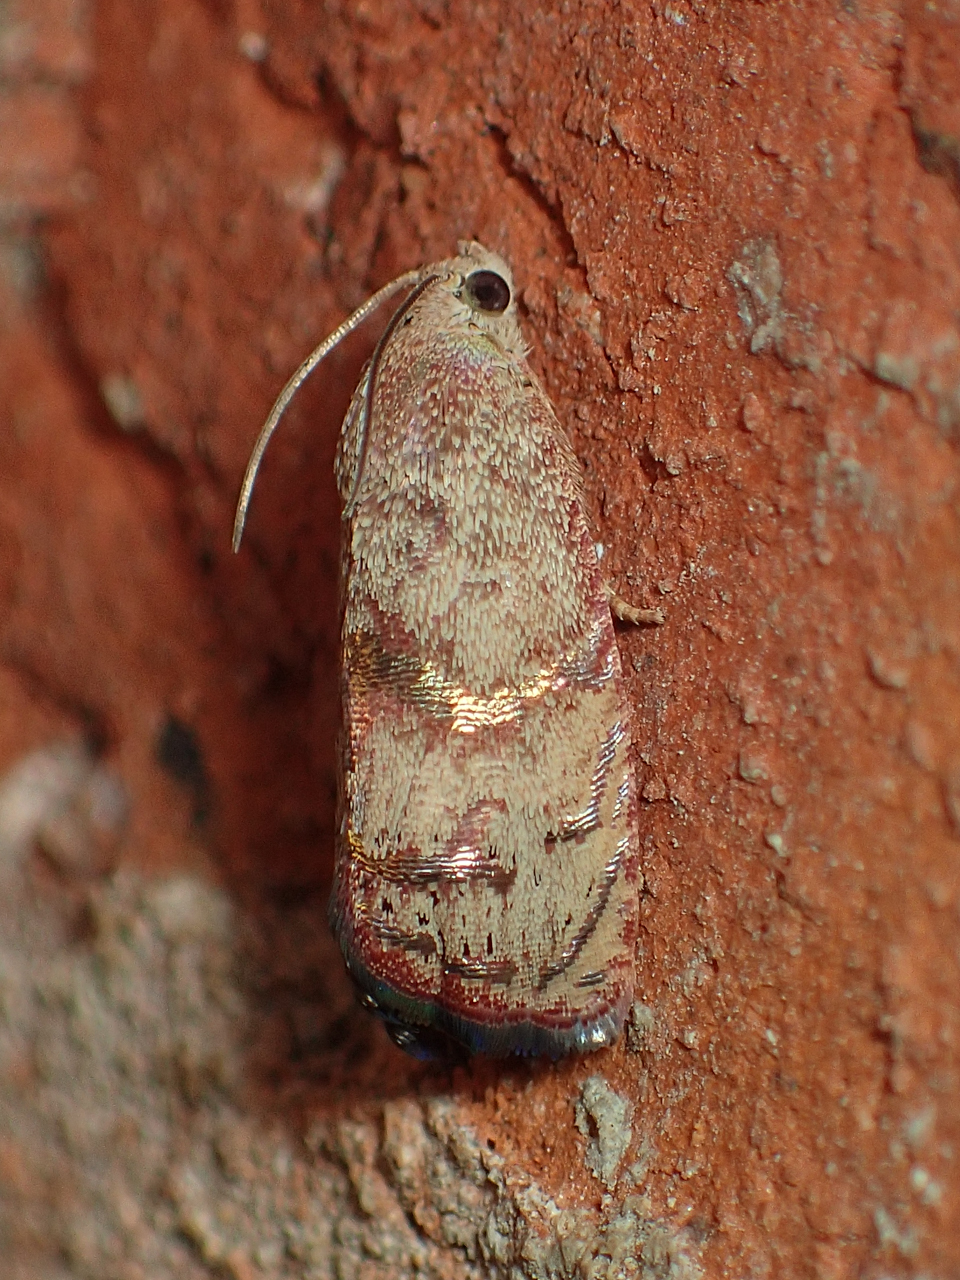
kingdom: Animalia
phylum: Arthropoda
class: Insecta
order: Lepidoptera
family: Tortricidae
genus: Cydia
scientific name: Cydia latiferreana
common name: Filbertworm moth
